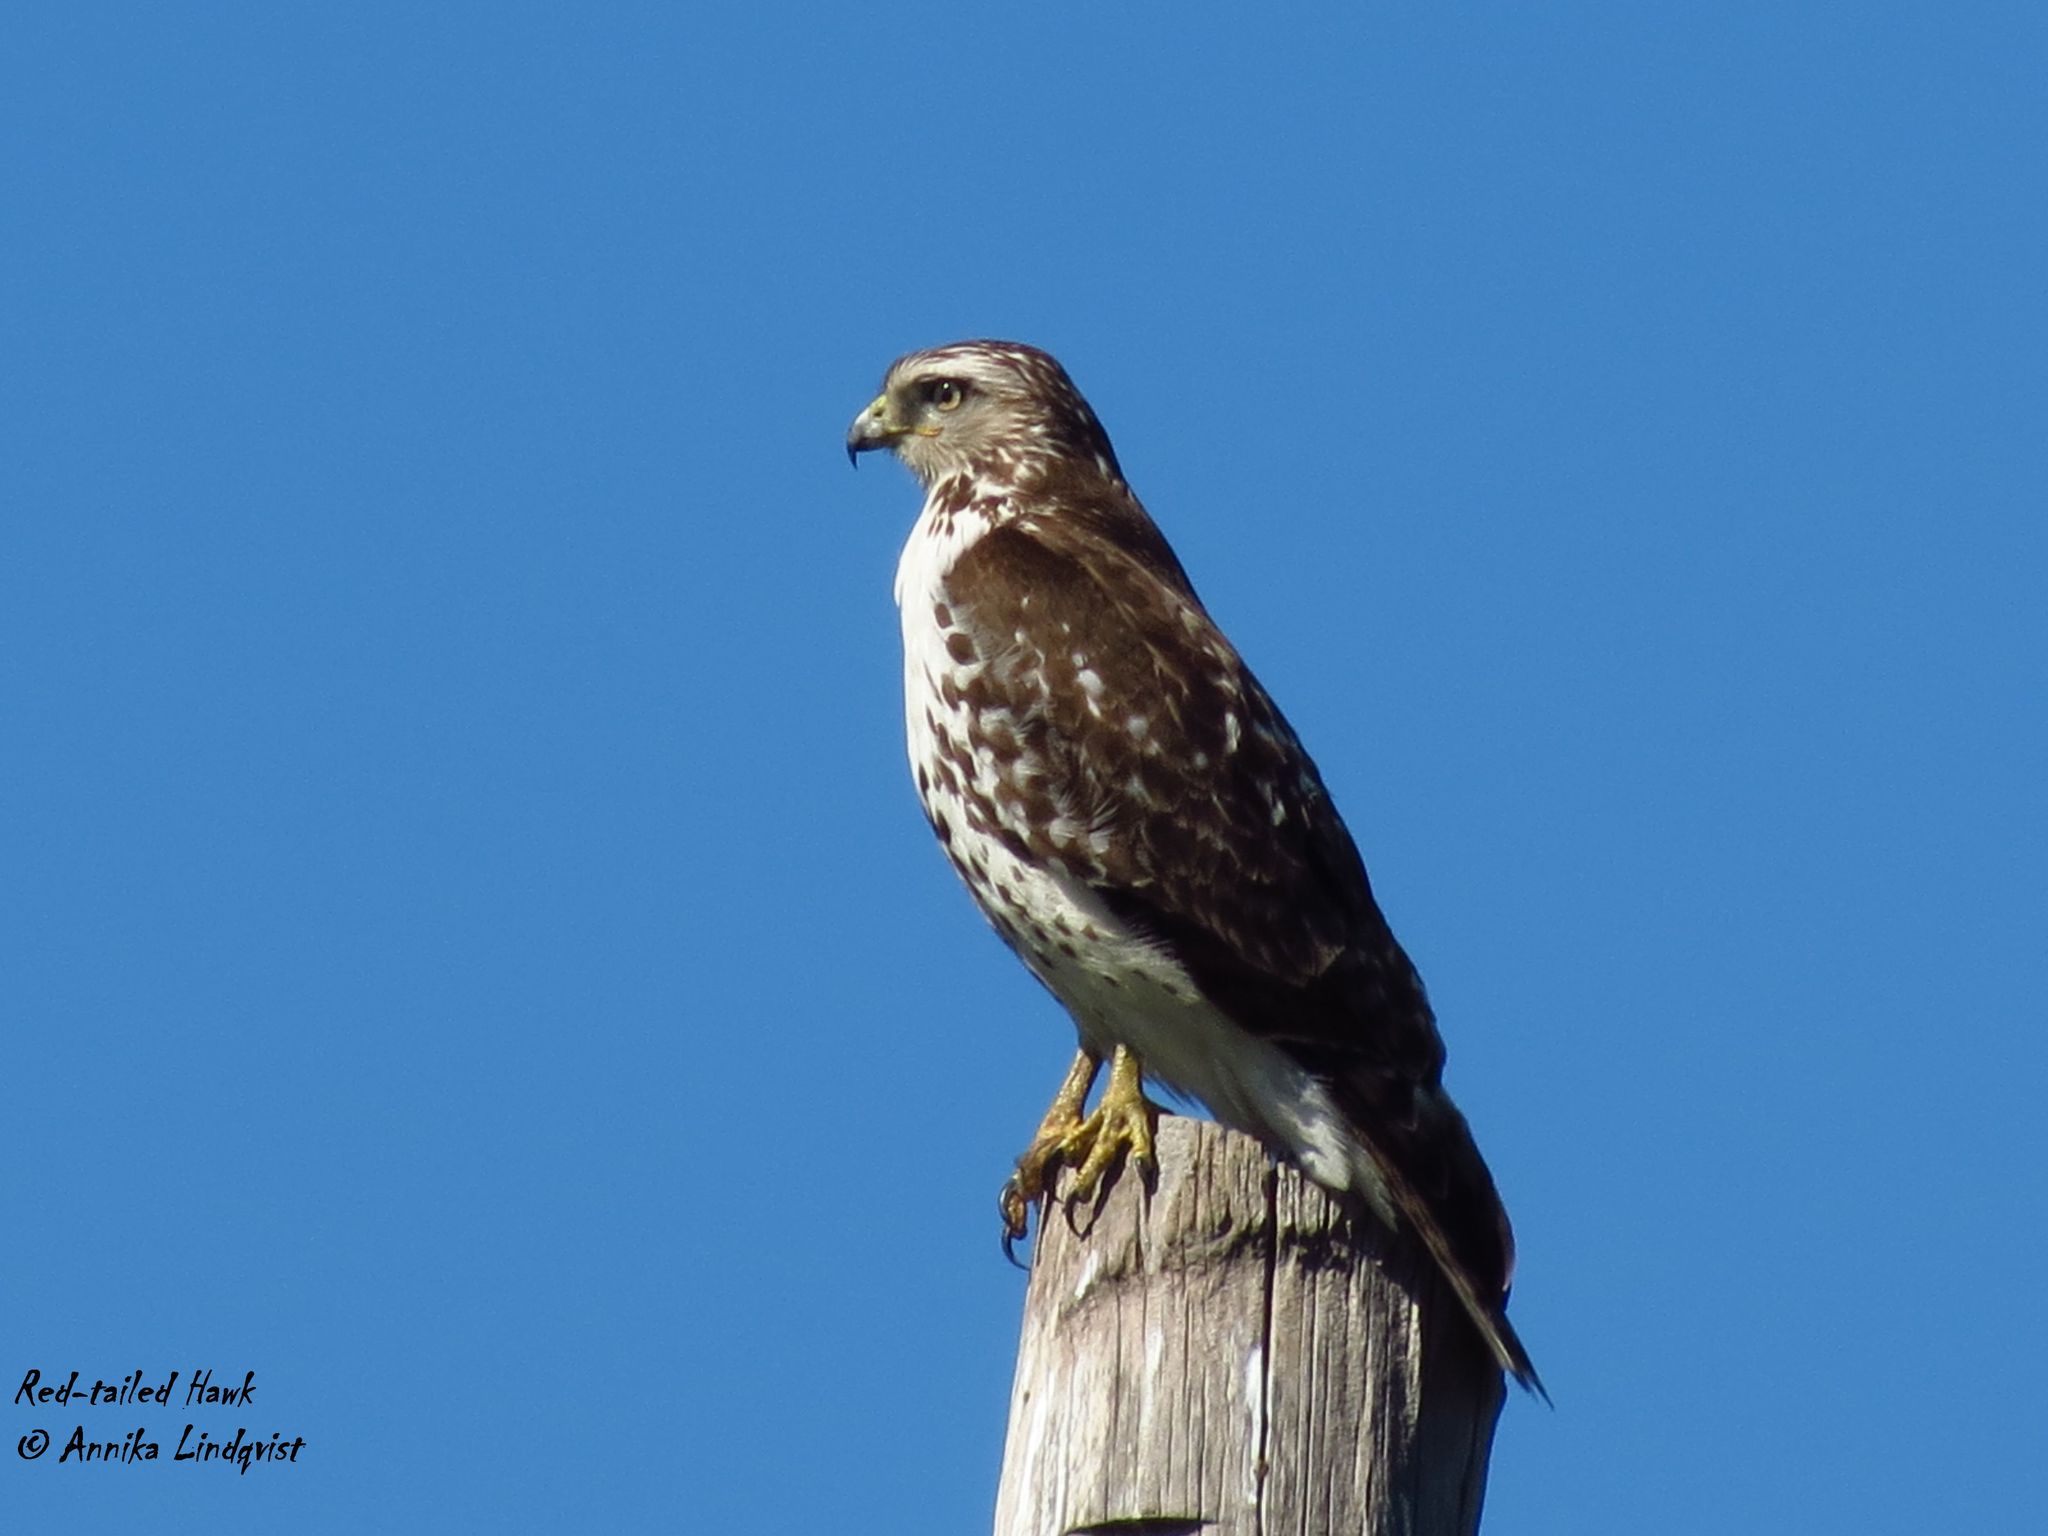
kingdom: Animalia
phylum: Chordata
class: Aves
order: Accipitriformes
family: Accipitridae
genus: Buteo
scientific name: Buteo jamaicensis
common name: Red-tailed hawk
